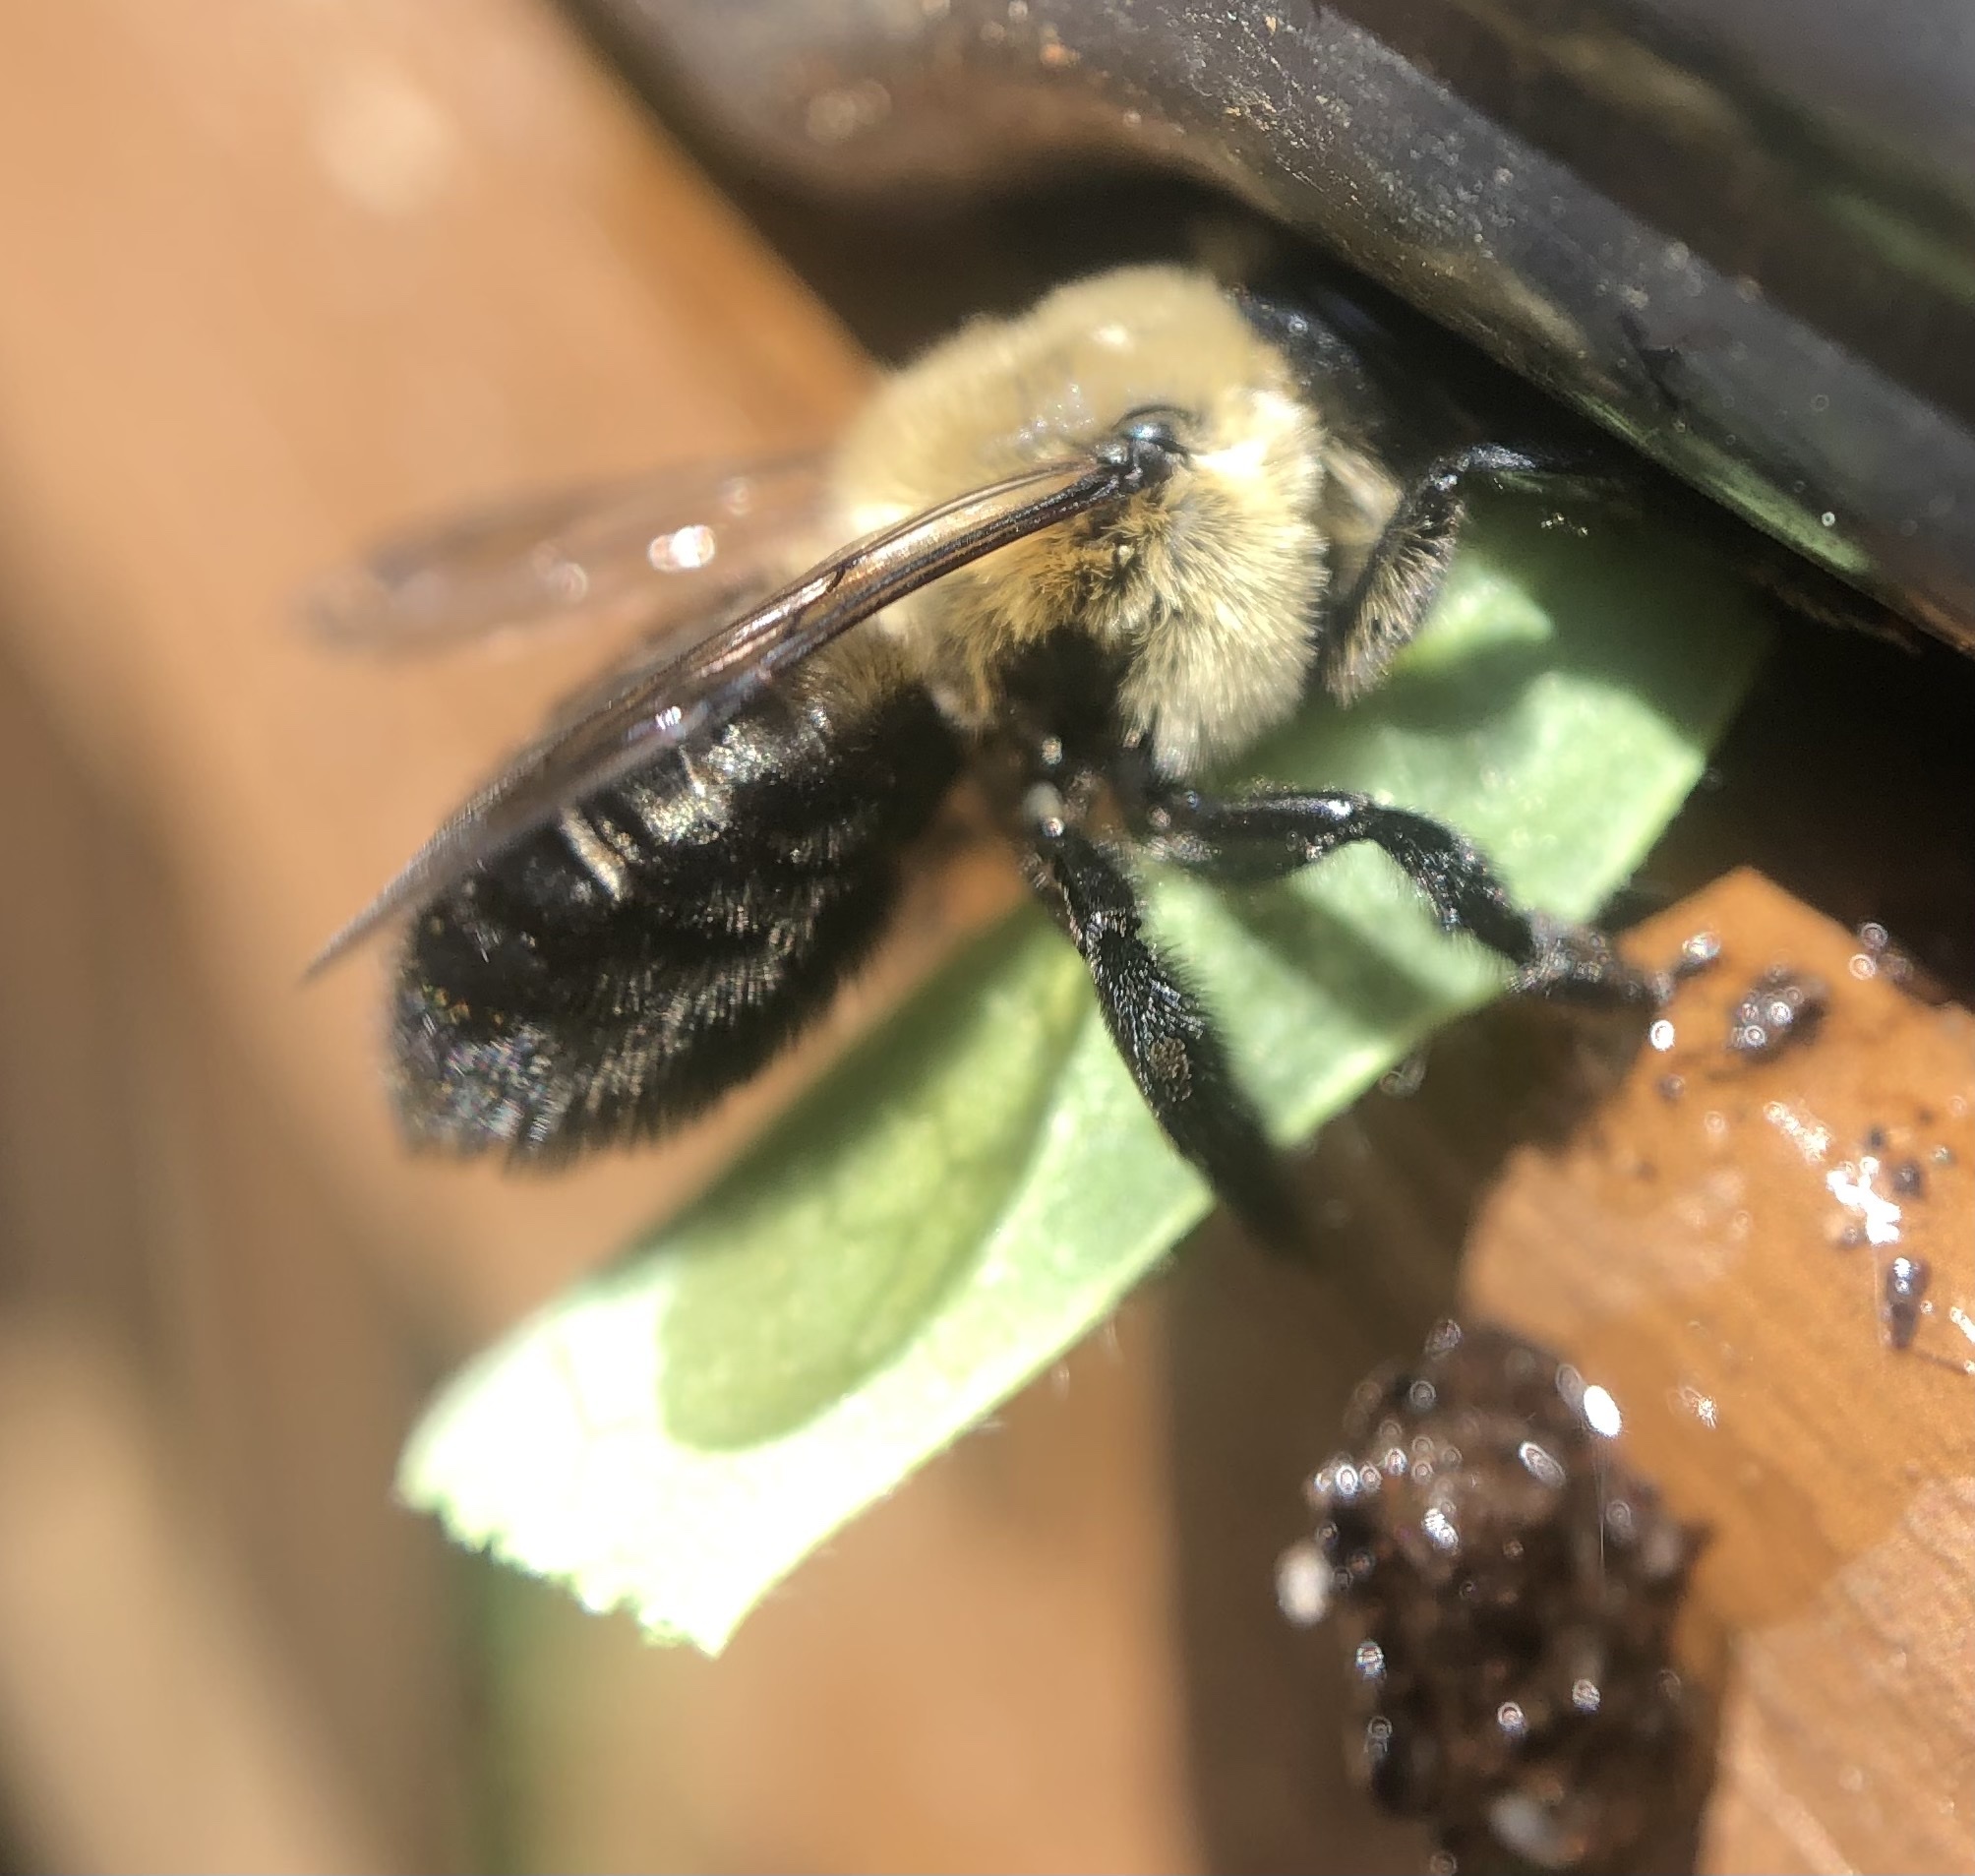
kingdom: Animalia
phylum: Arthropoda
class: Insecta
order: Hymenoptera
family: Megachilidae
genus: Megachile
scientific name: Megachile mucida
